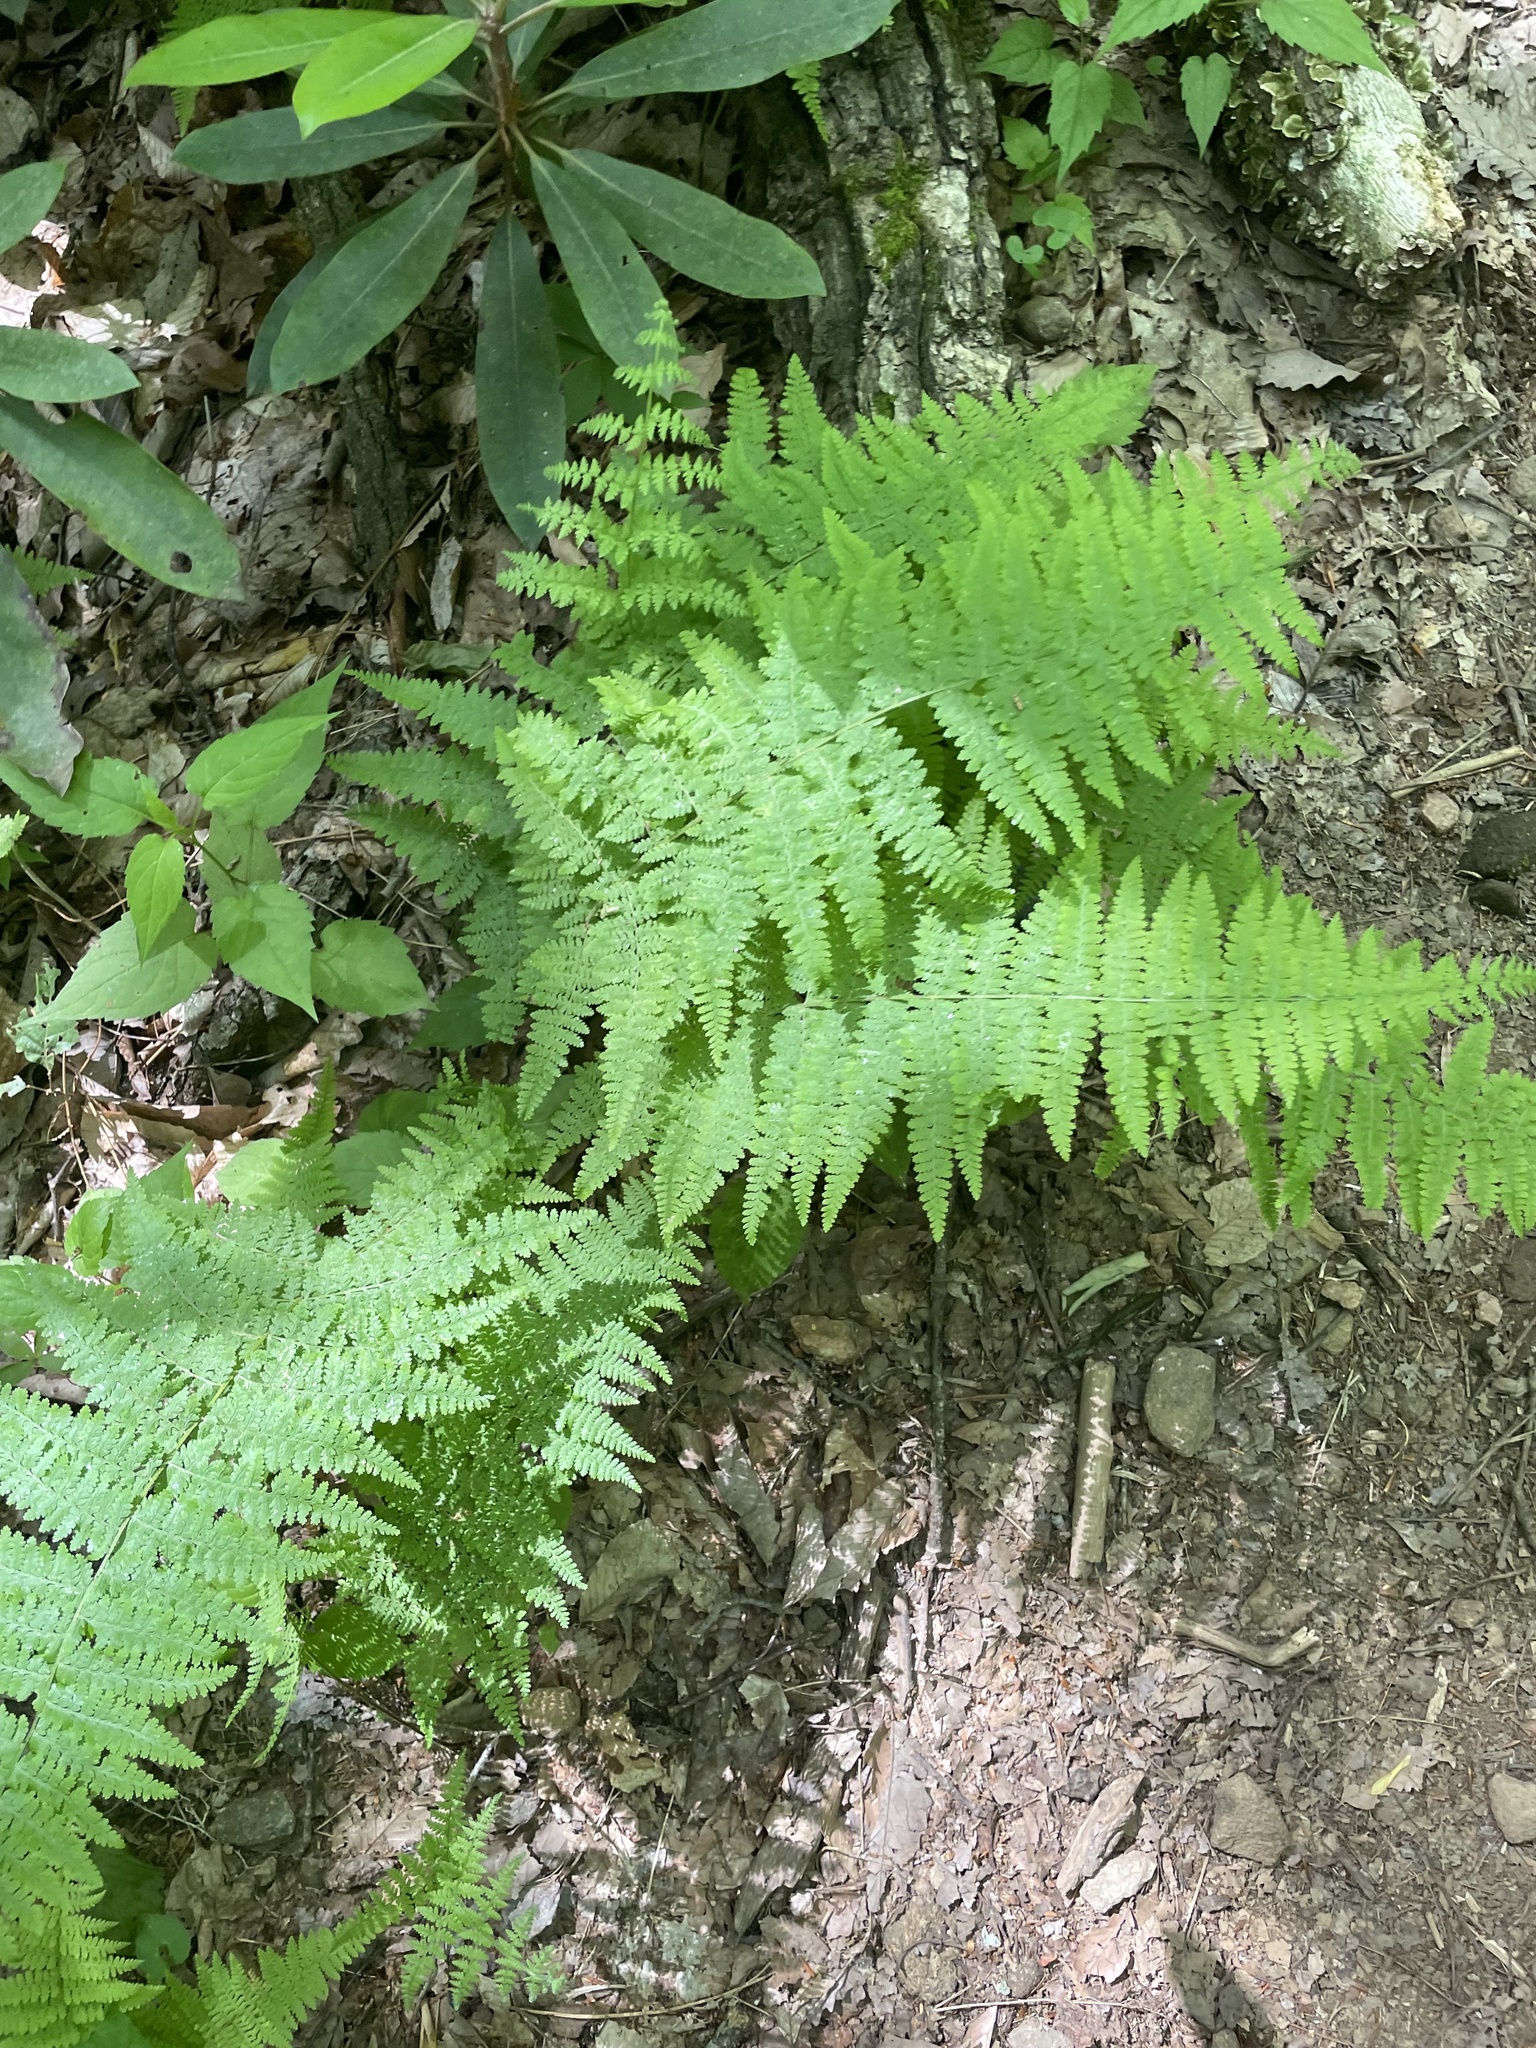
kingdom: Plantae
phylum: Tracheophyta
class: Polypodiopsida
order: Polypodiales
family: Dennstaedtiaceae
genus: Sitobolium
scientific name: Sitobolium punctilobum
